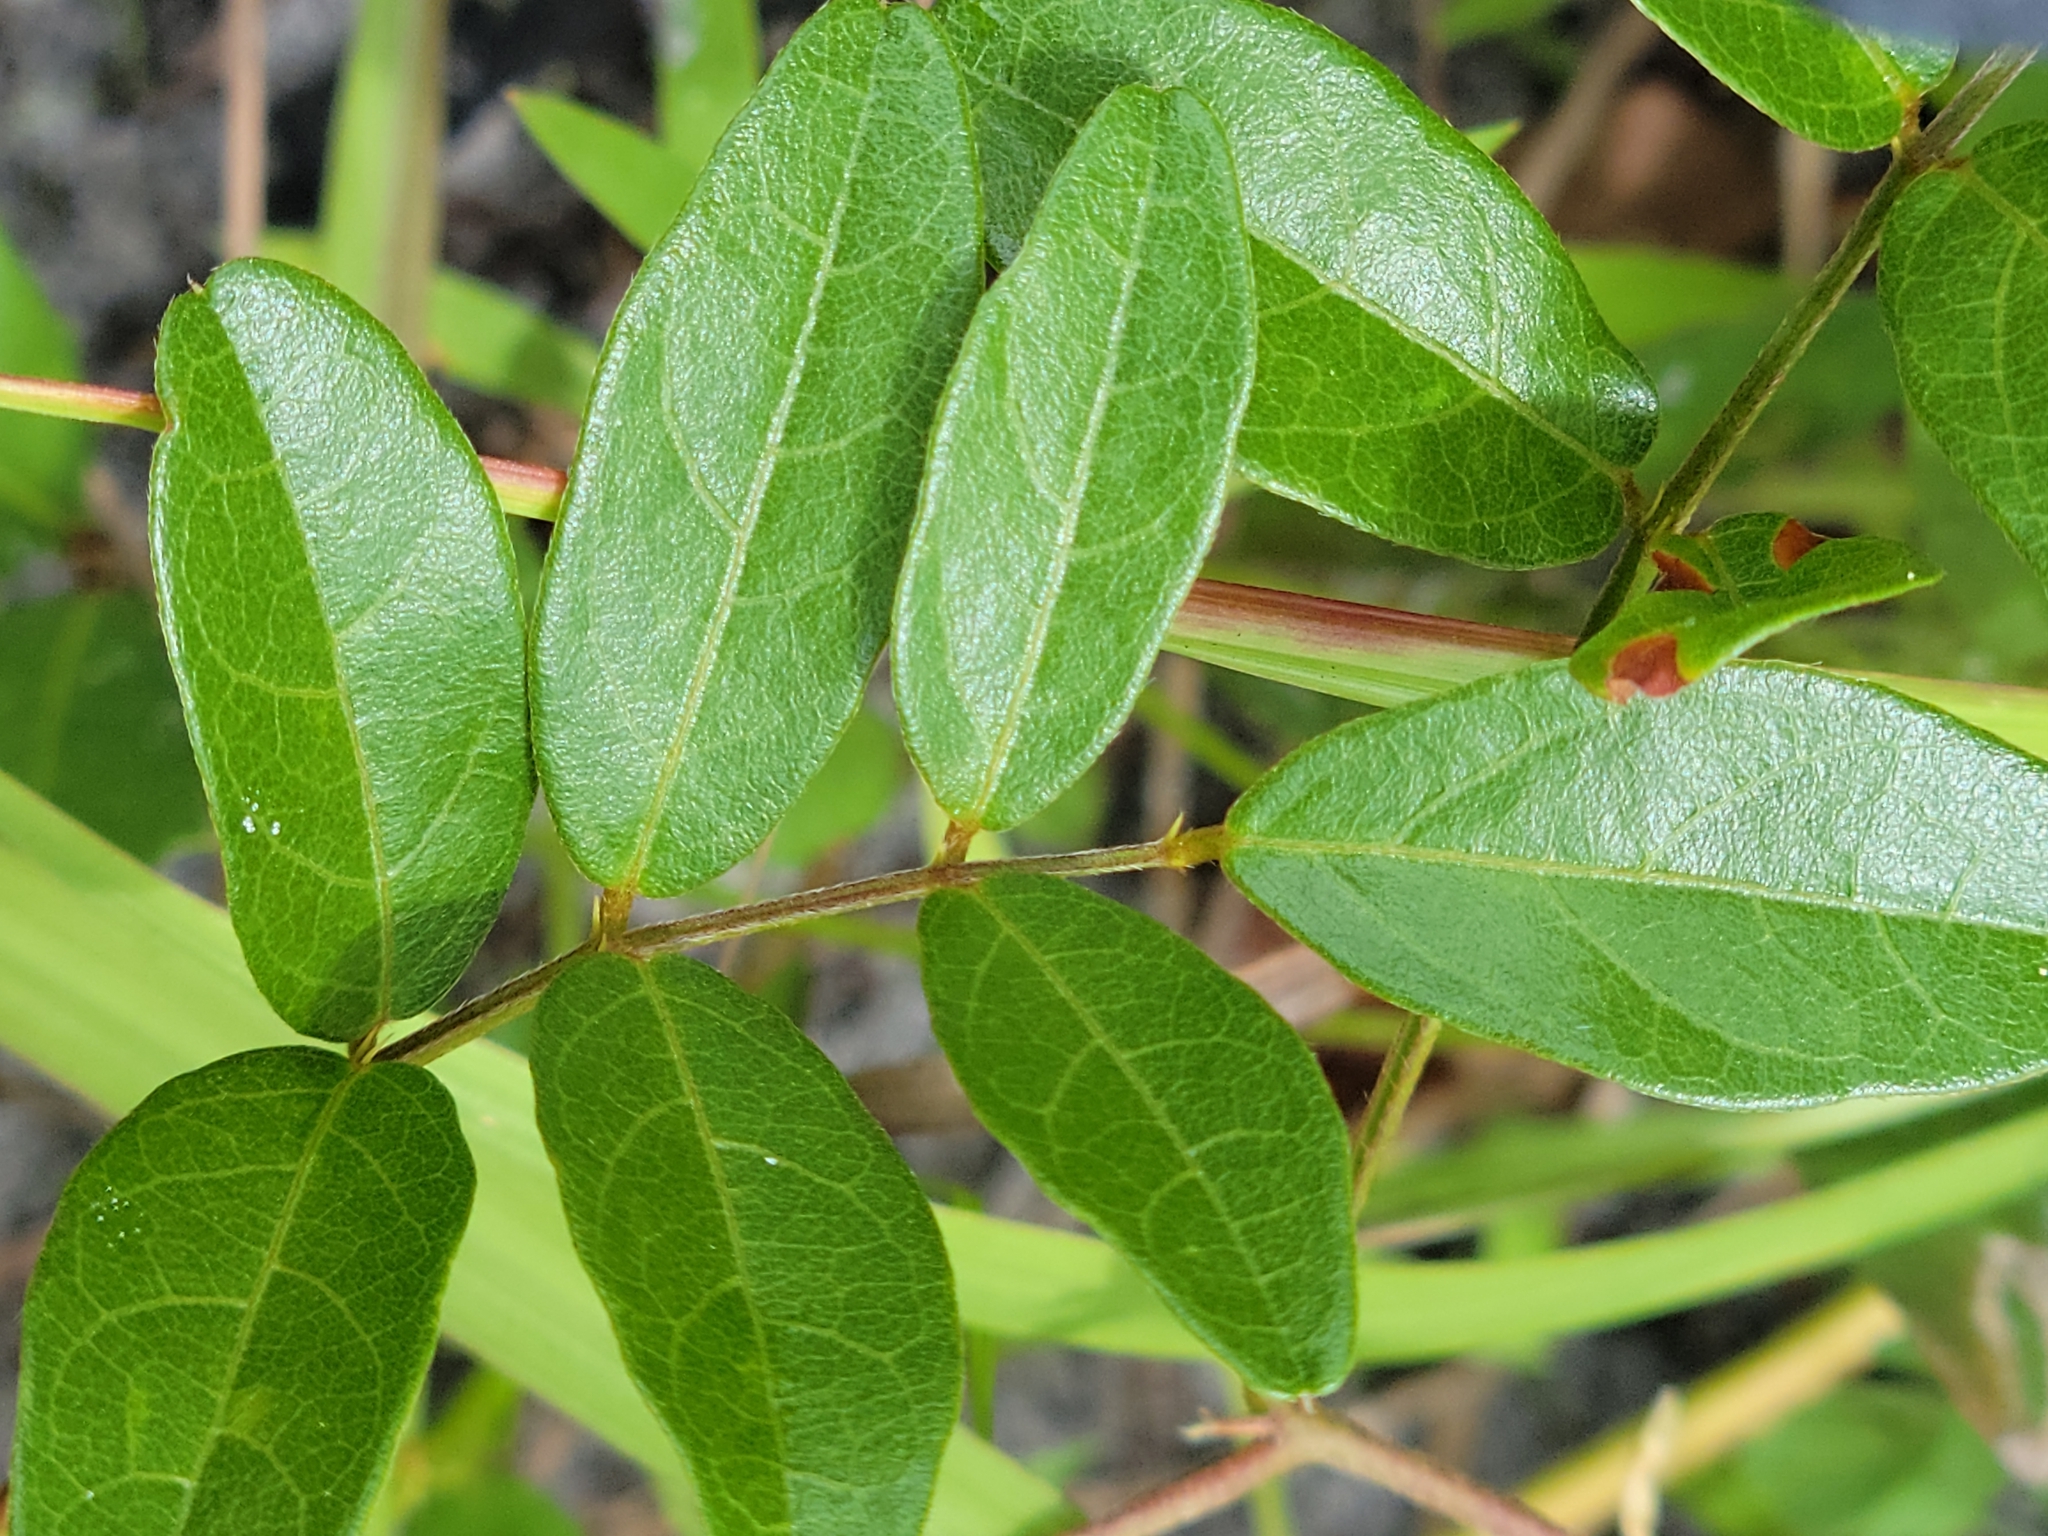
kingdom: Plantae
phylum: Tracheophyta
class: Magnoliopsida
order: Fabales
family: Fabaceae
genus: Galactia
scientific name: Galactia elliottii
